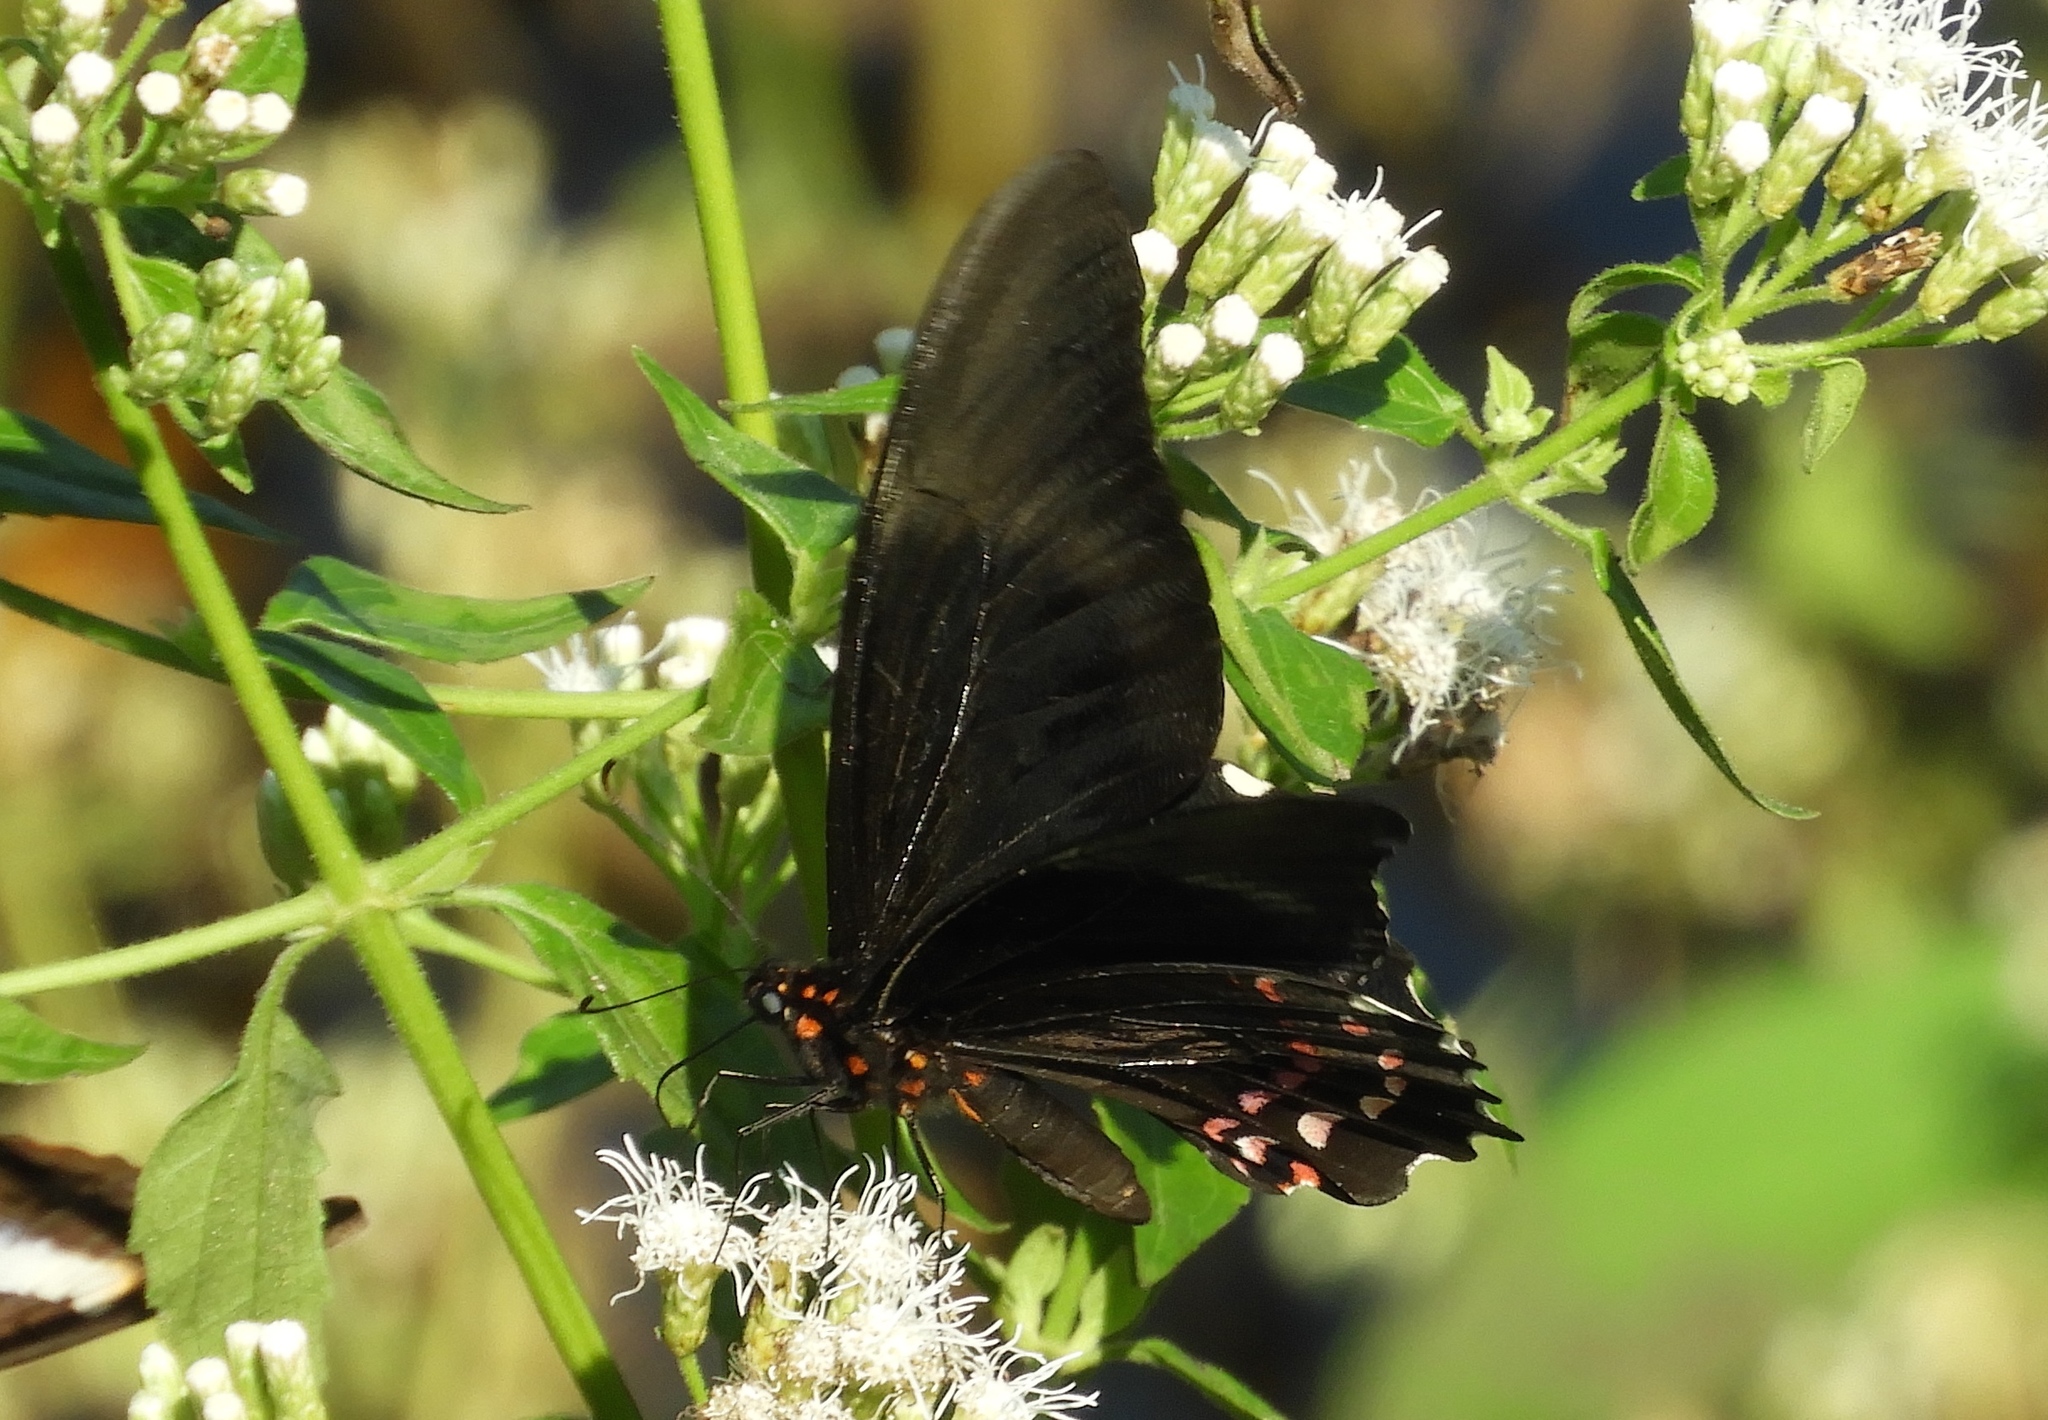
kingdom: Animalia
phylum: Arthropoda
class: Insecta
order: Lepidoptera
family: Papilionidae
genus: Heraclides
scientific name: Heraclides rogeri
